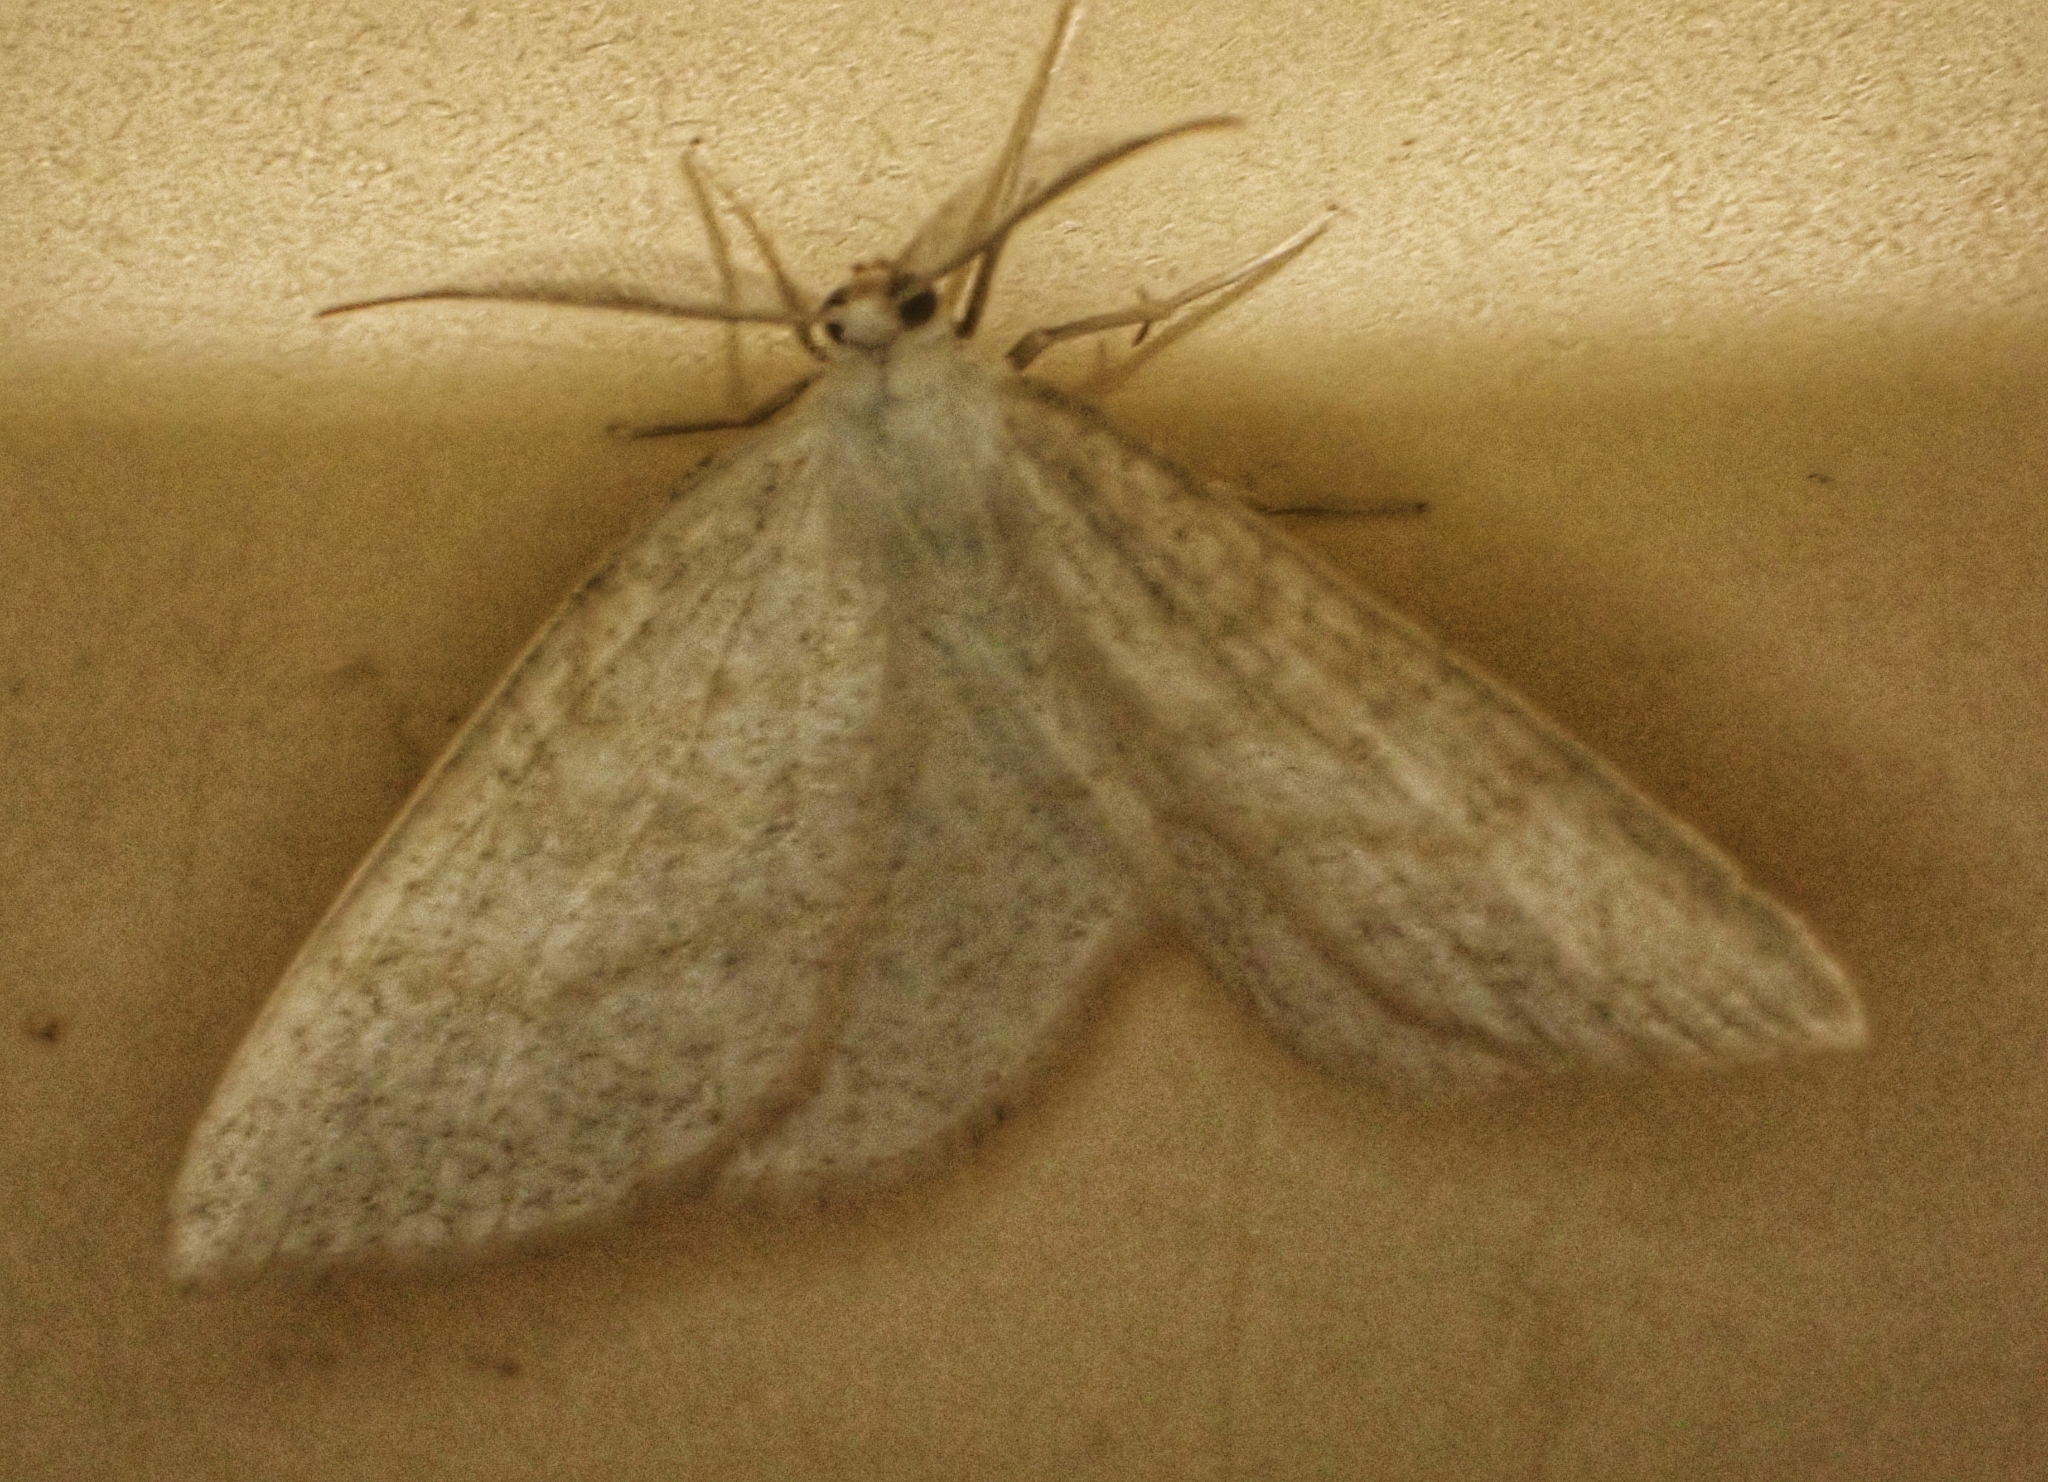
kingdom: Animalia
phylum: Arthropoda
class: Insecta
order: Lepidoptera
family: Geometridae
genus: Cabera
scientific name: Cabera exanthemata
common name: Common wave
